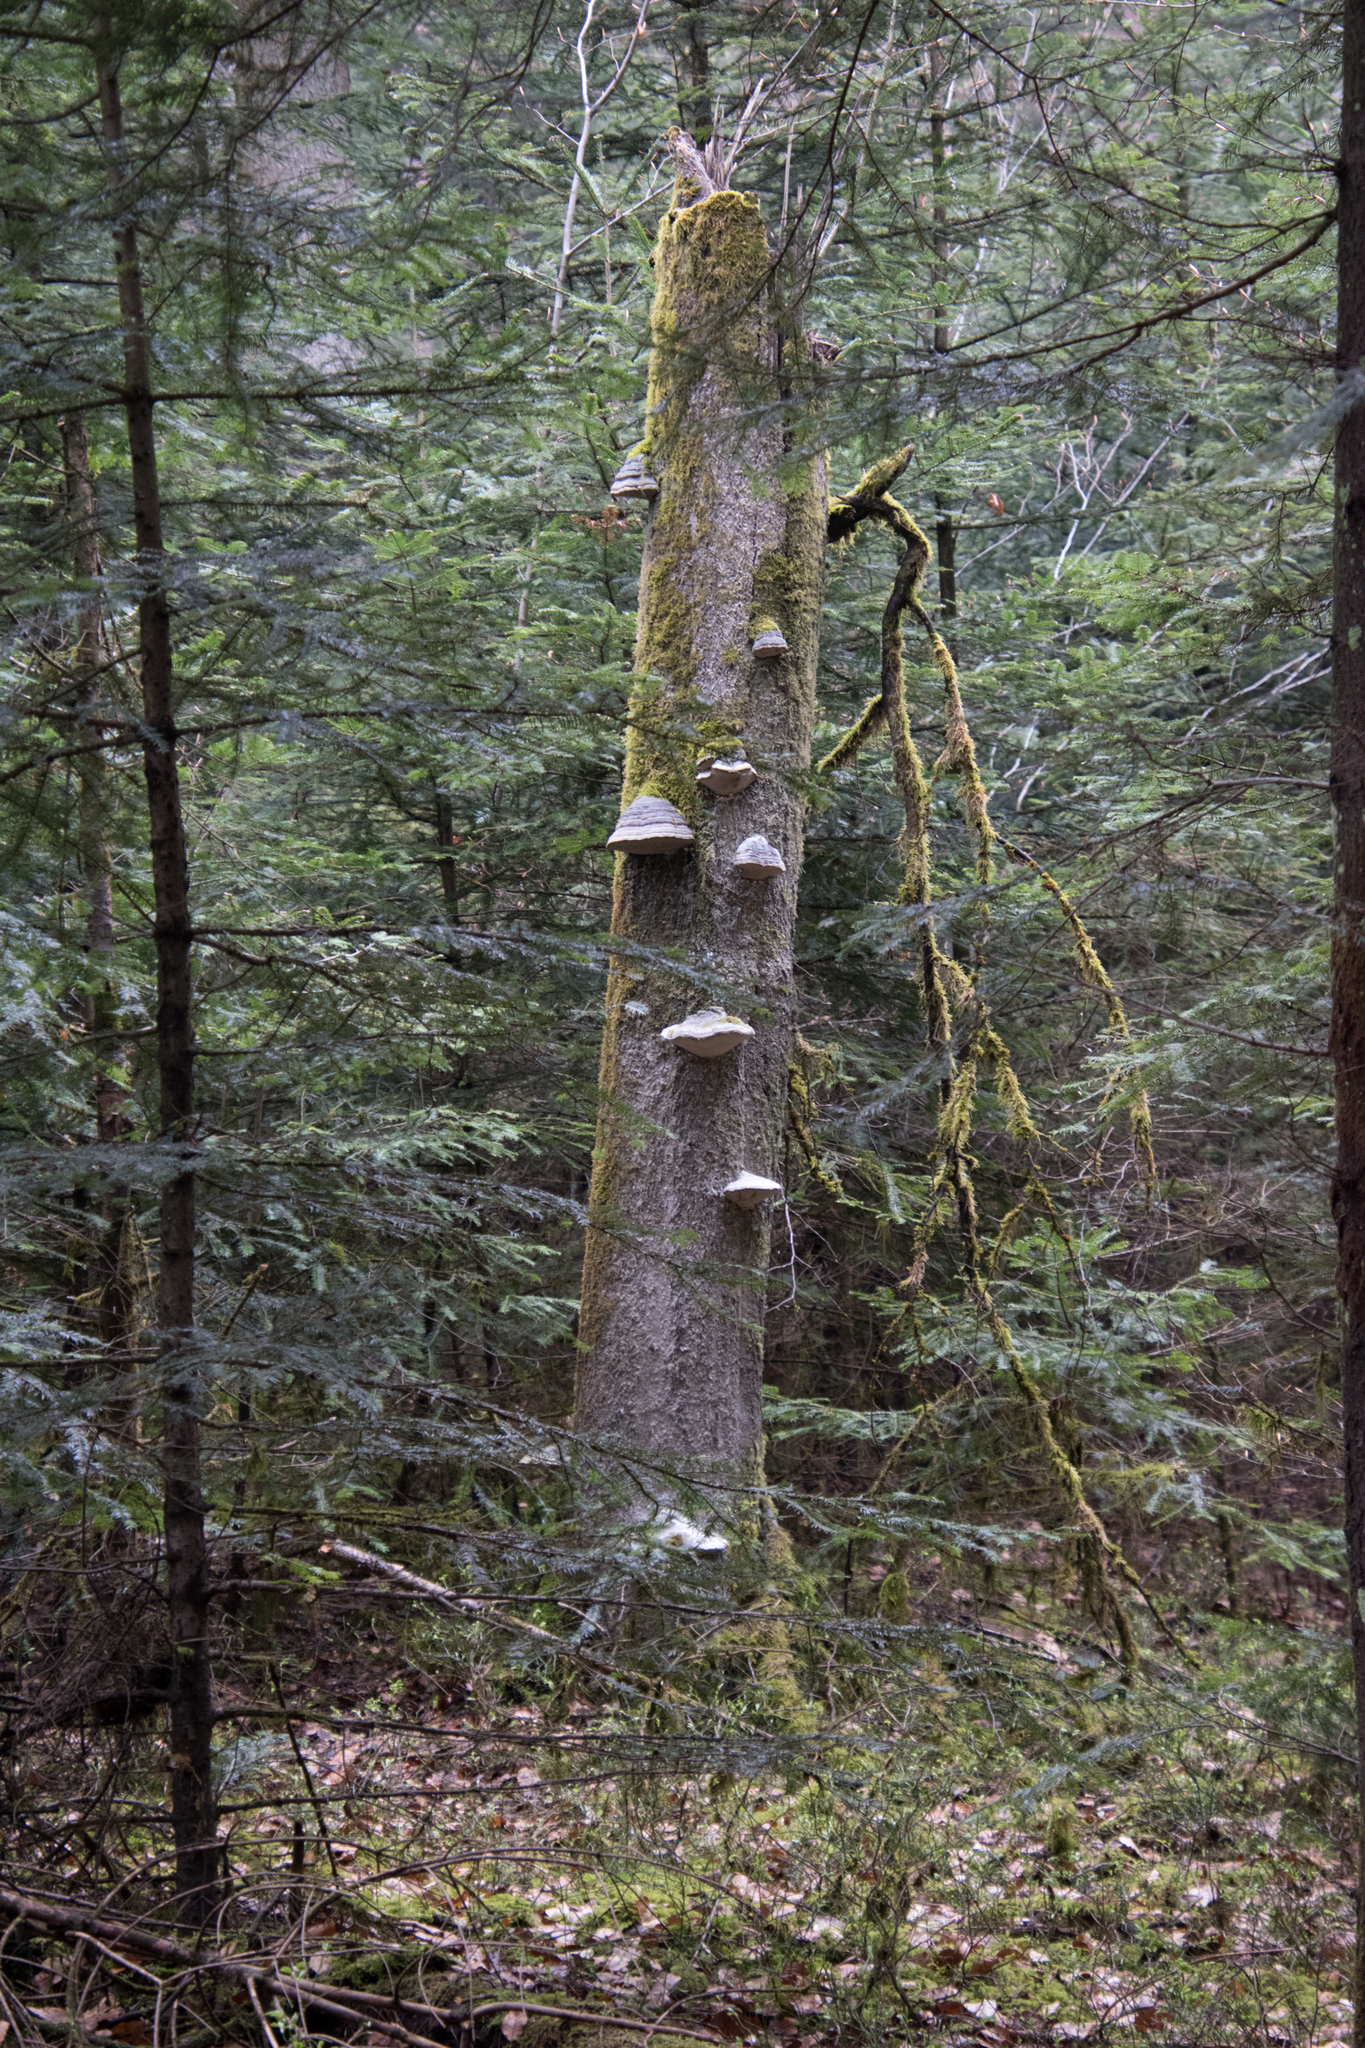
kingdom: Fungi
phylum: Basidiomycota
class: Agaricomycetes
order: Polyporales
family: Polyporaceae
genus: Fomes
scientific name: Fomes fomentarius
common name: Hoof fungus
